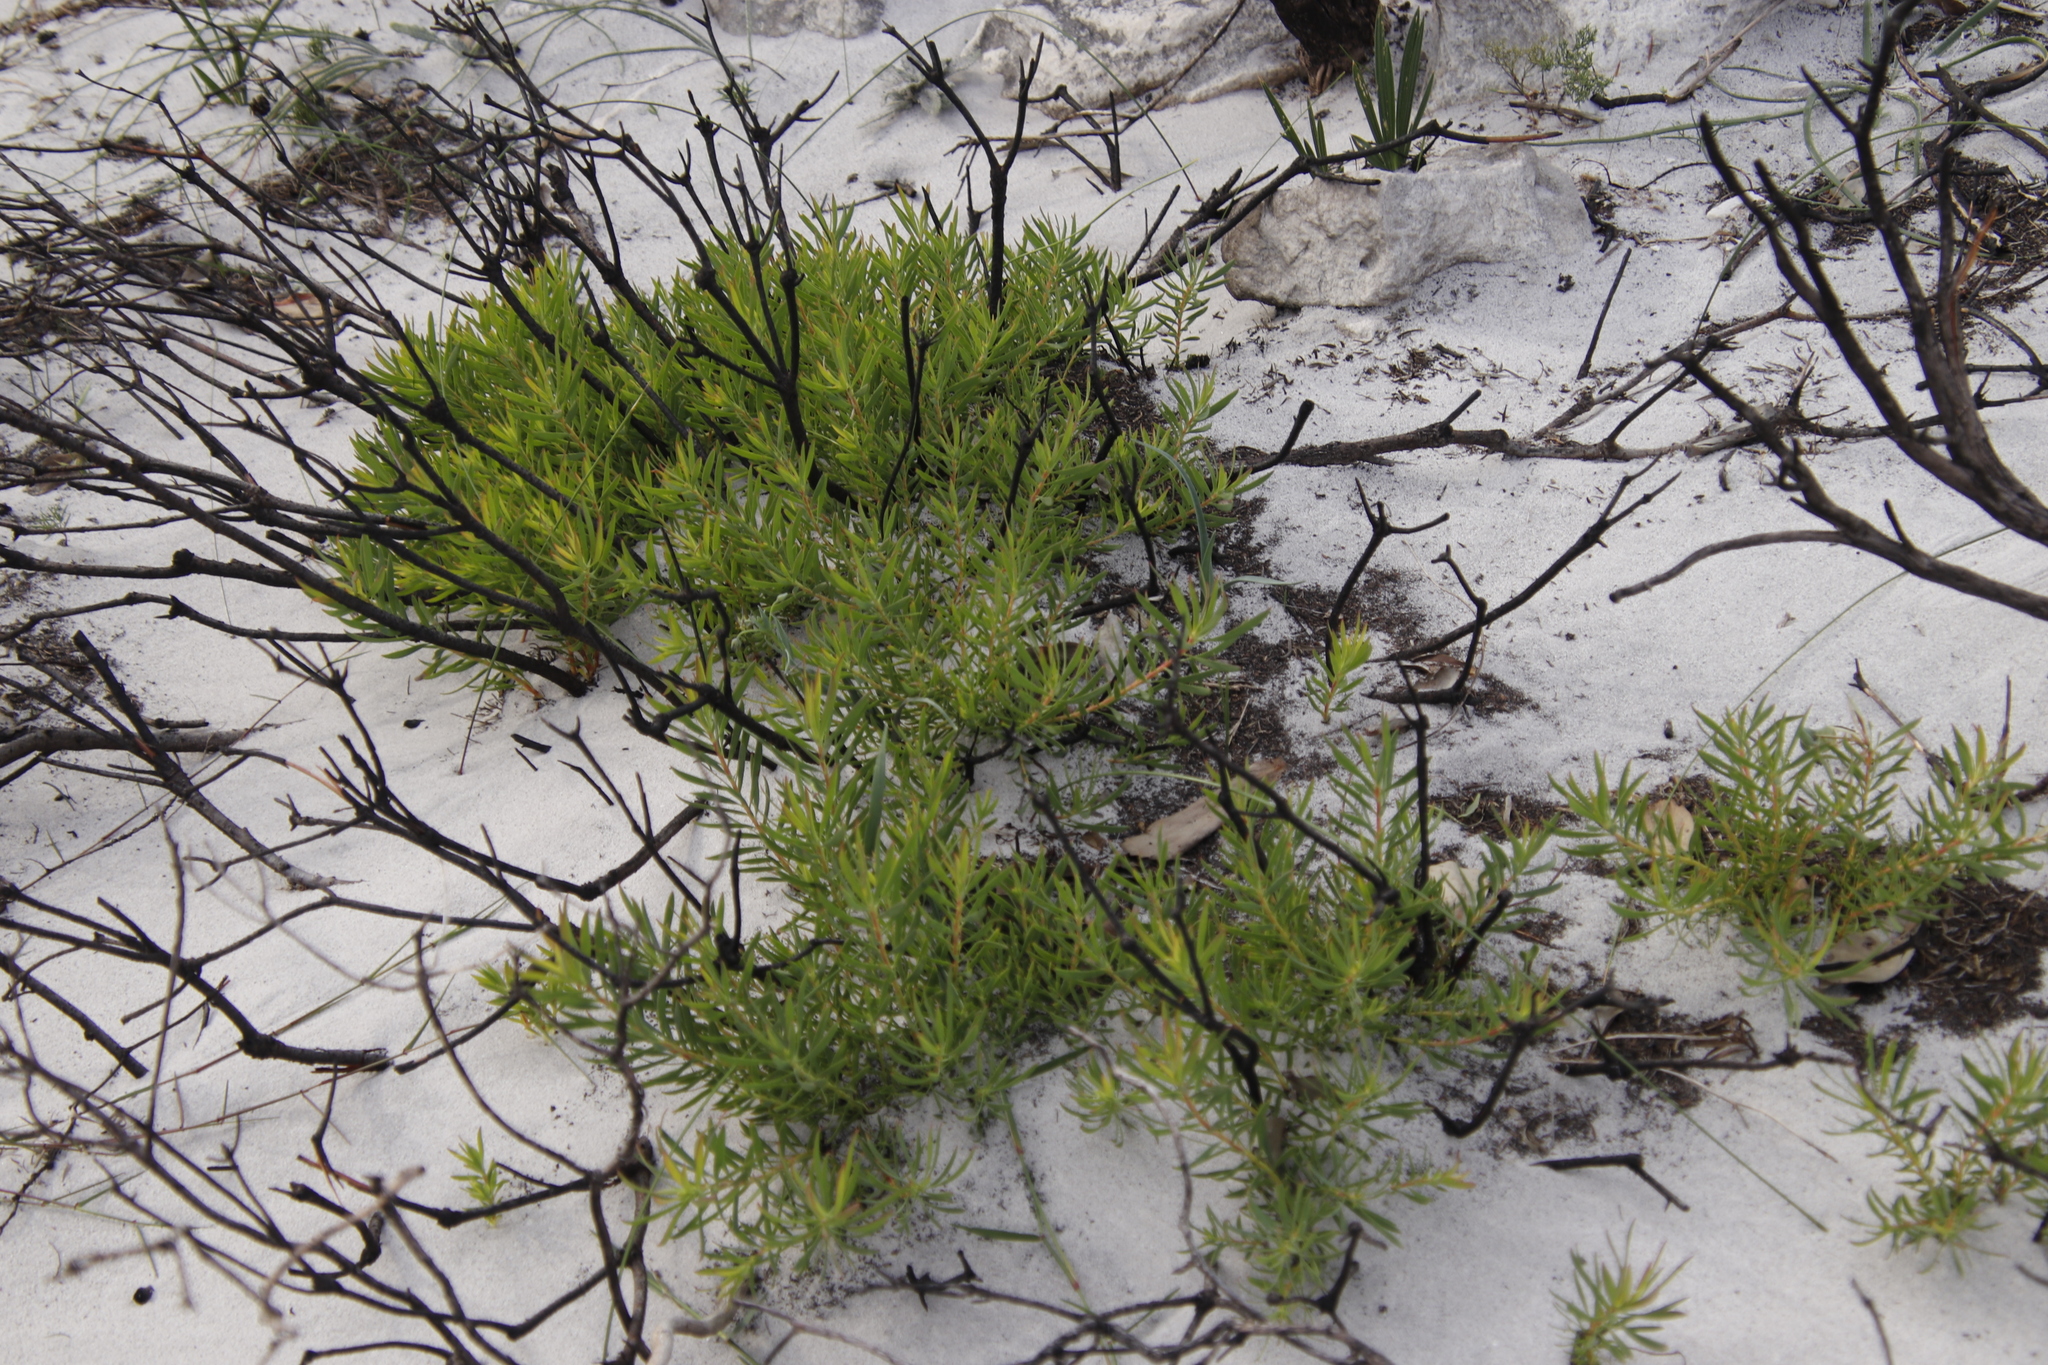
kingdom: Plantae
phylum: Tracheophyta
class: Magnoliopsida
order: Proteales
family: Proteaceae
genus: Leucadendron
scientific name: Leucadendron salignum
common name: Common sunshine conebush
